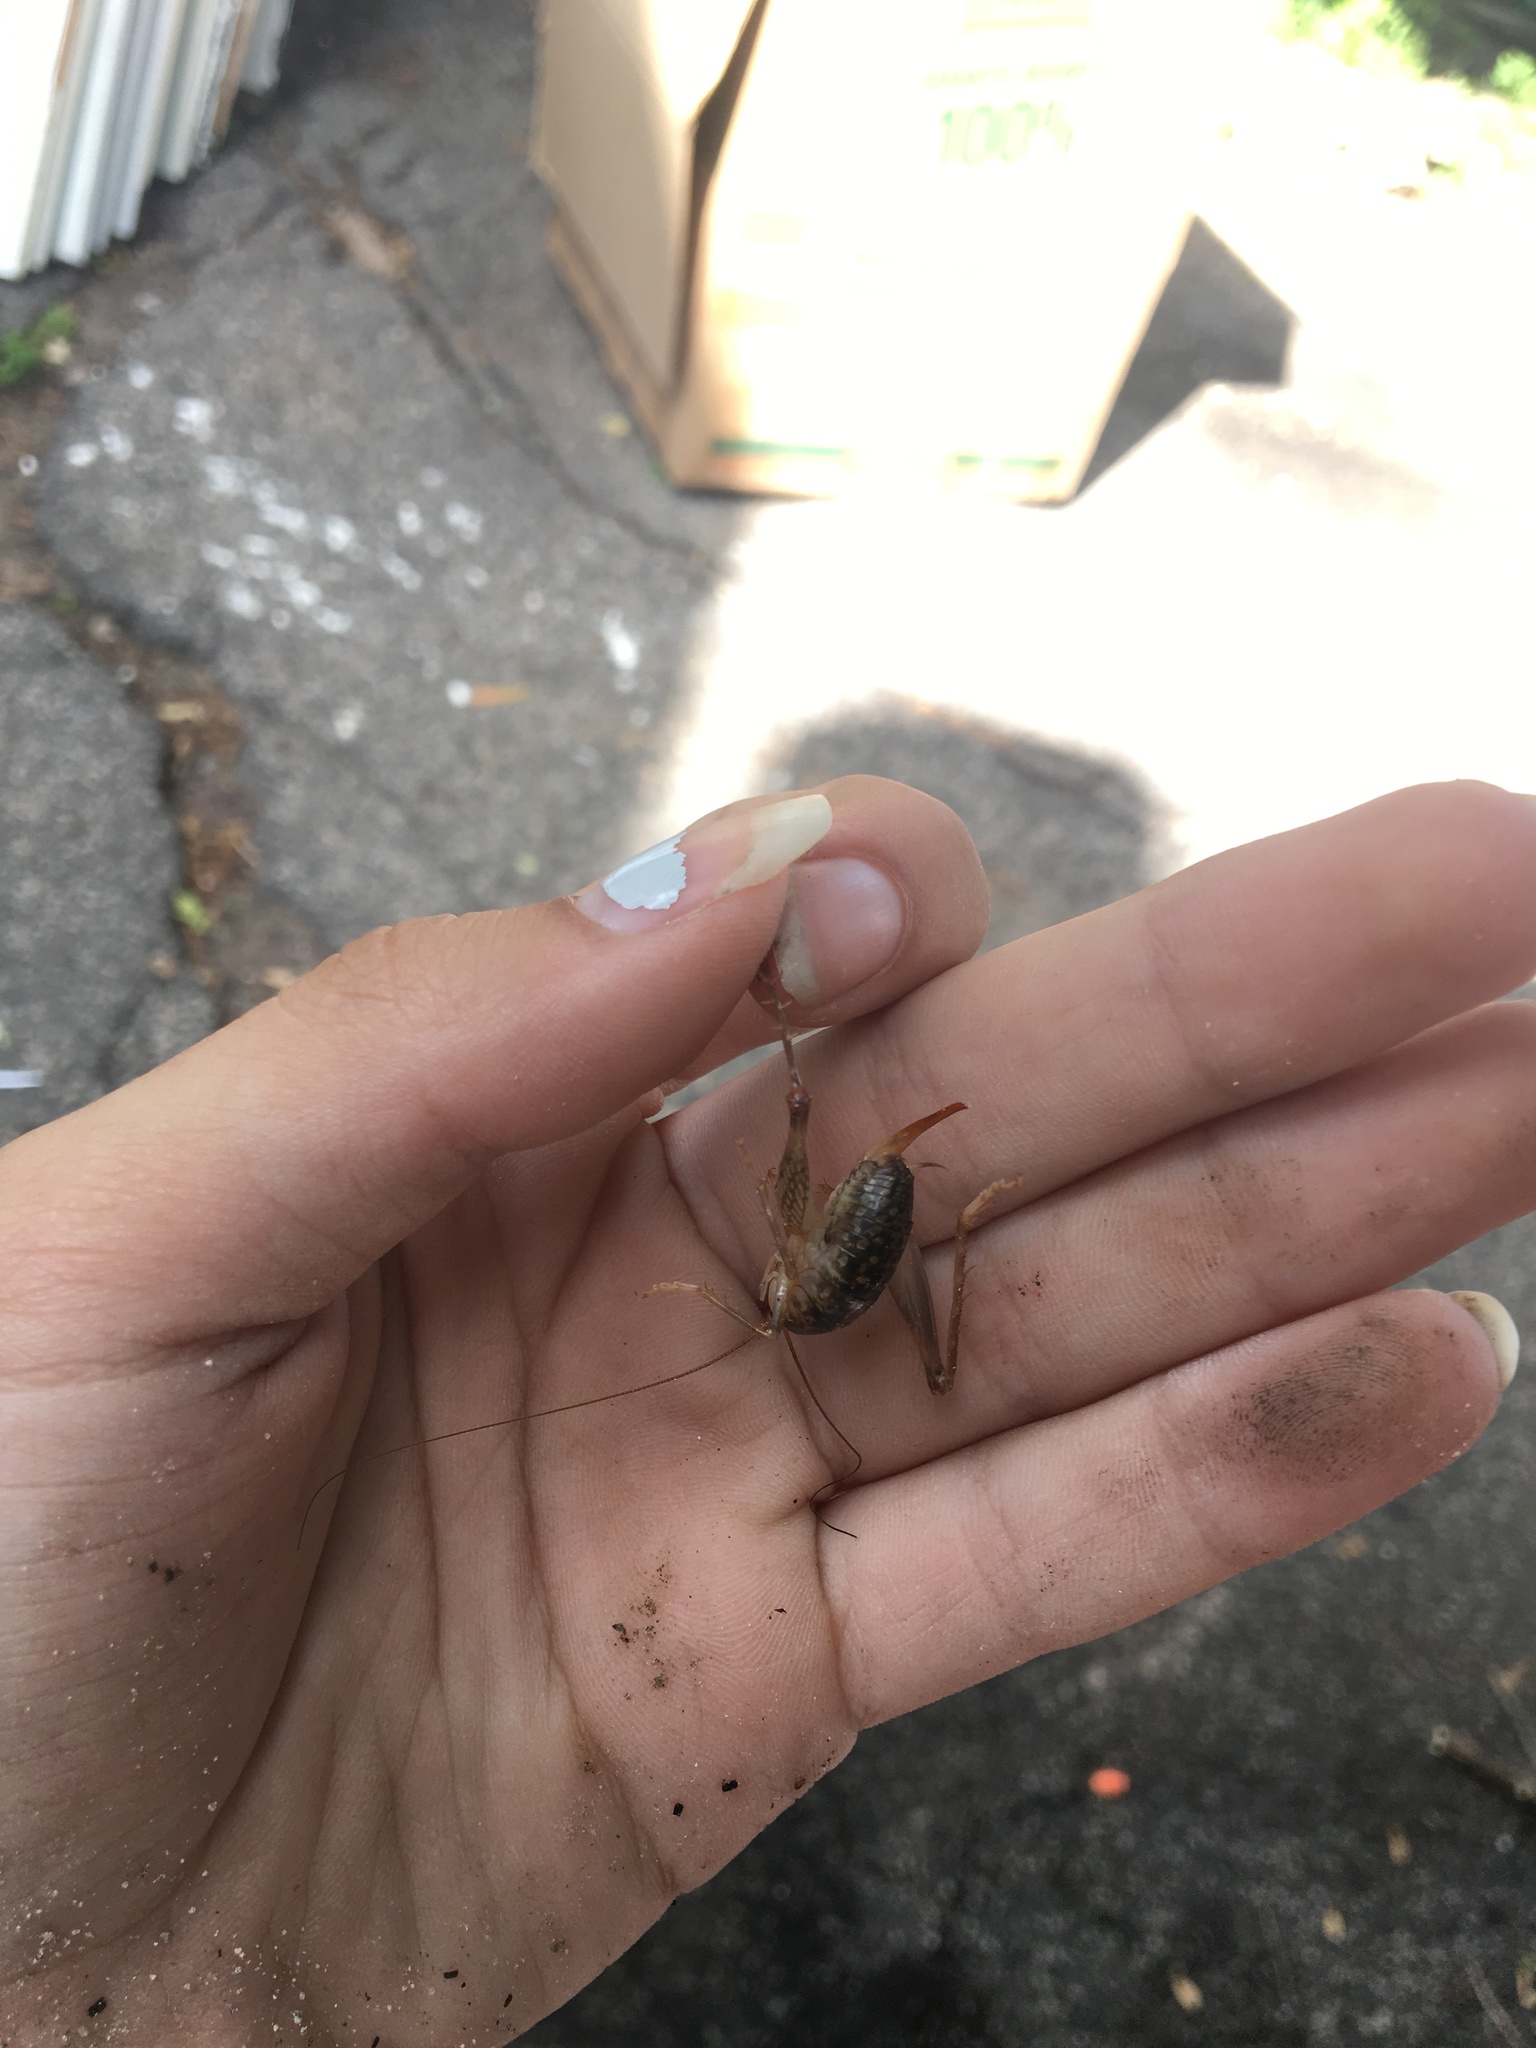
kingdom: Animalia
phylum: Arthropoda
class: Insecta
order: Orthoptera
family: Rhaphidophoridae
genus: Ceuthophilus
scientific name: Ceuthophilus
